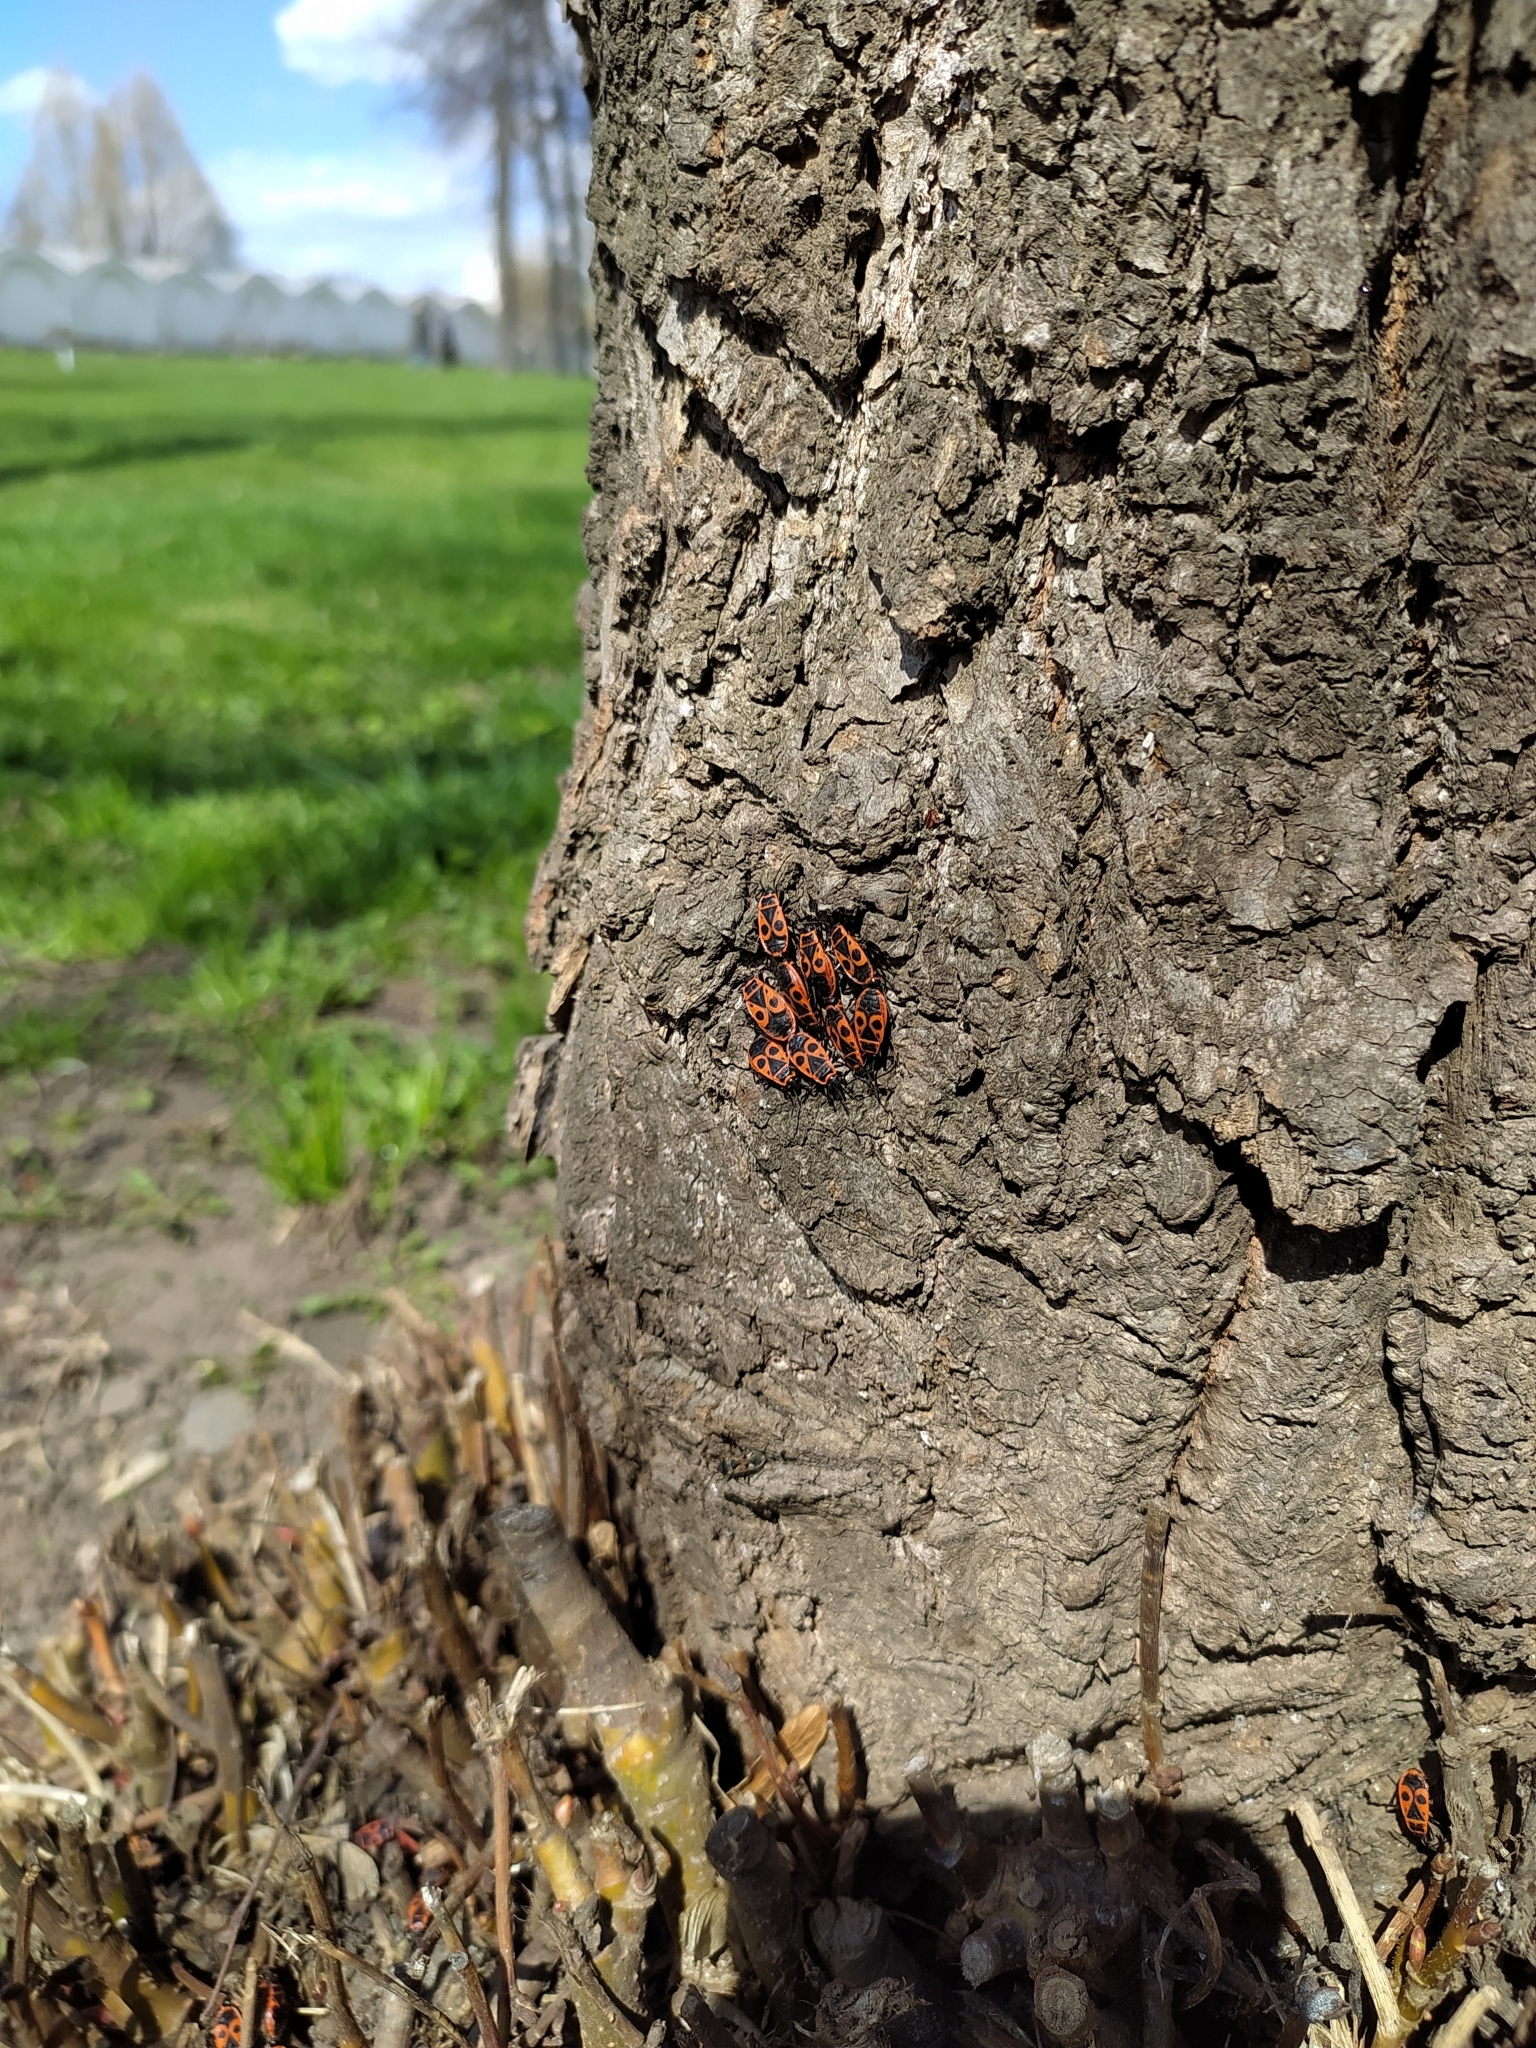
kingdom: Animalia
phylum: Arthropoda
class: Insecta
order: Hemiptera
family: Pyrrhocoridae
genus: Pyrrhocoris
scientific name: Pyrrhocoris apterus
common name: Firebug
